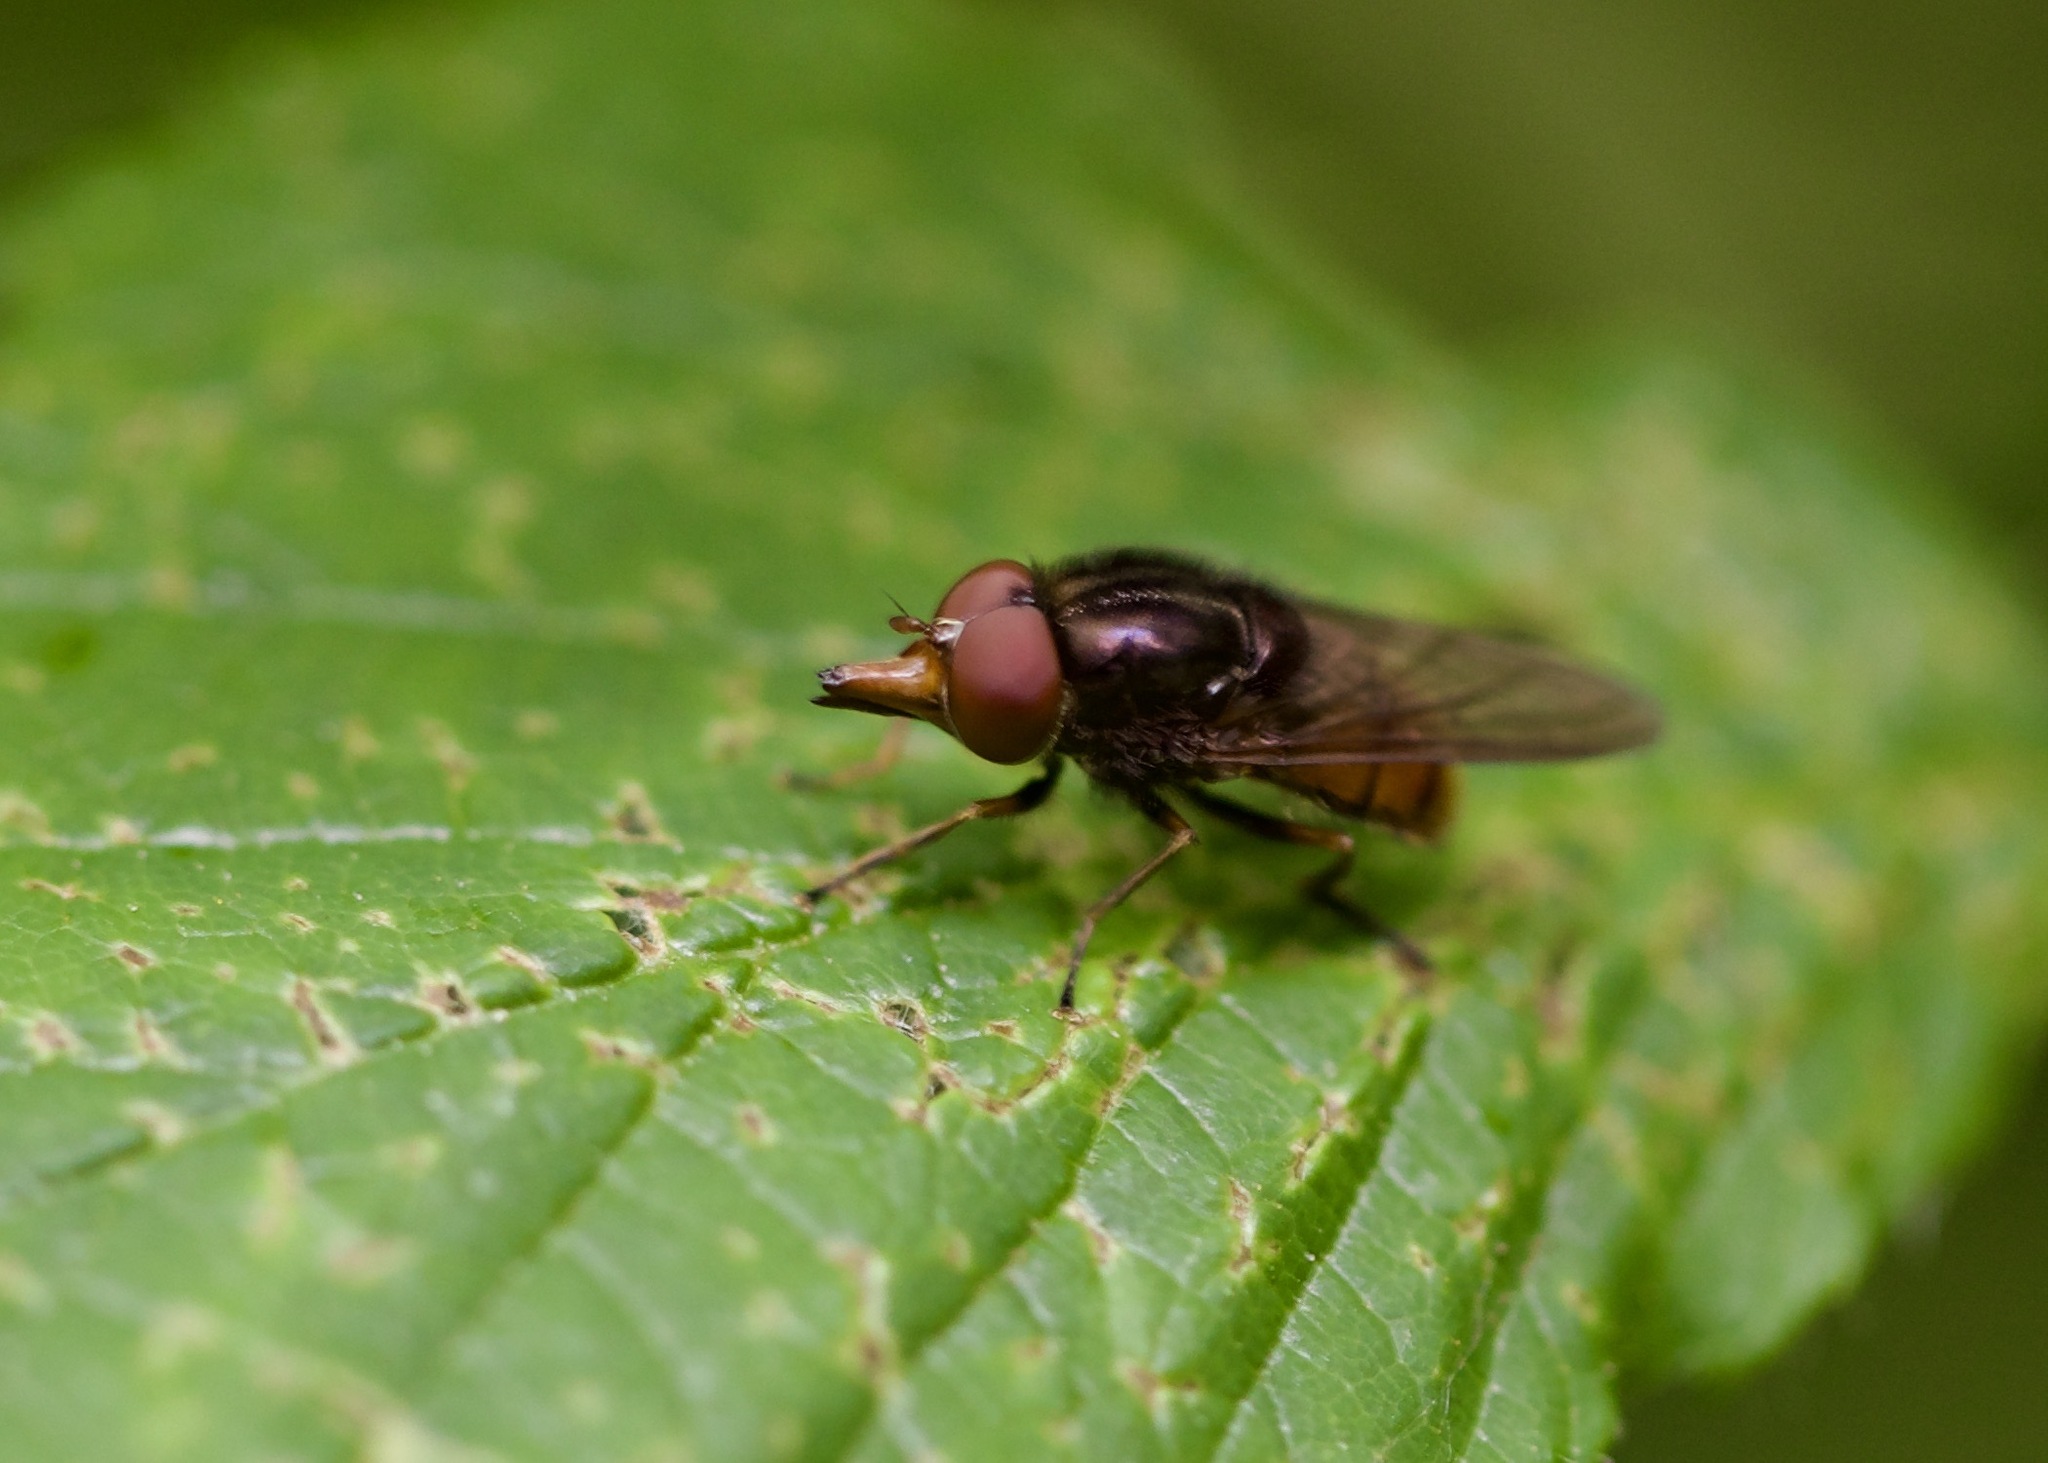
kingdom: Animalia
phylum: Arthropoda
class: Insecta
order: Diptera
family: Syrphidae
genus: Rhingia
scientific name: Rhingia campestris
